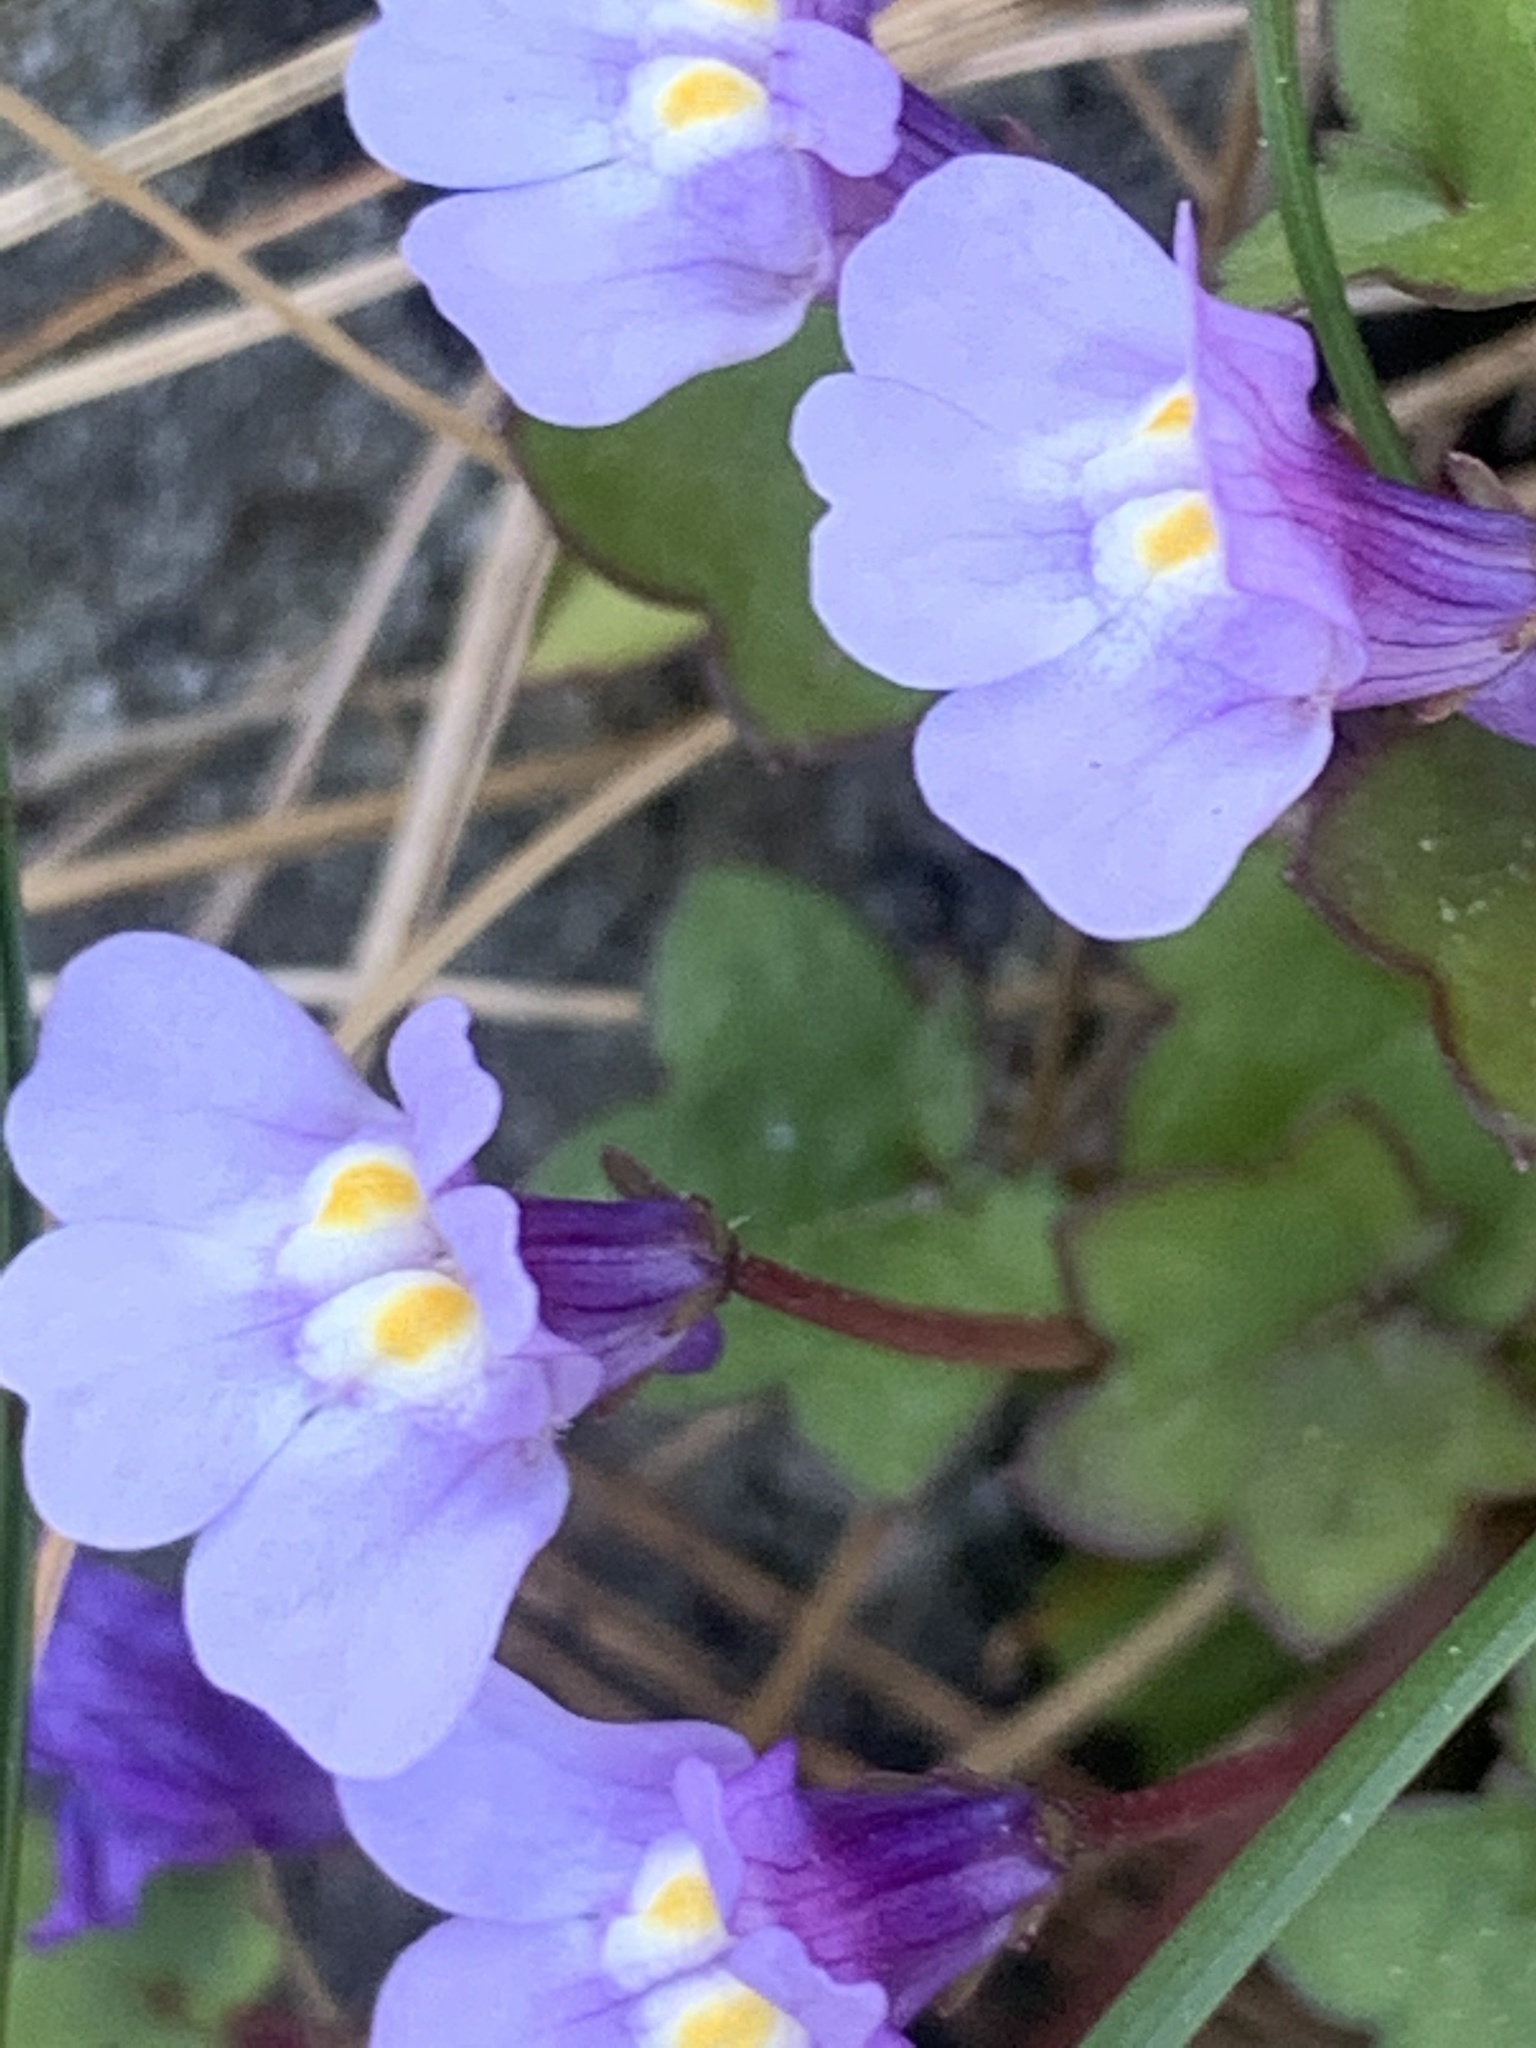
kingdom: Plantae
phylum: Tracheophyta
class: Magnoliopsida
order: Lamiales
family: Plantaginaceae
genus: Cymbalaria
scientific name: Cymbalaria muralis
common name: Ivy-leaved toadflax
